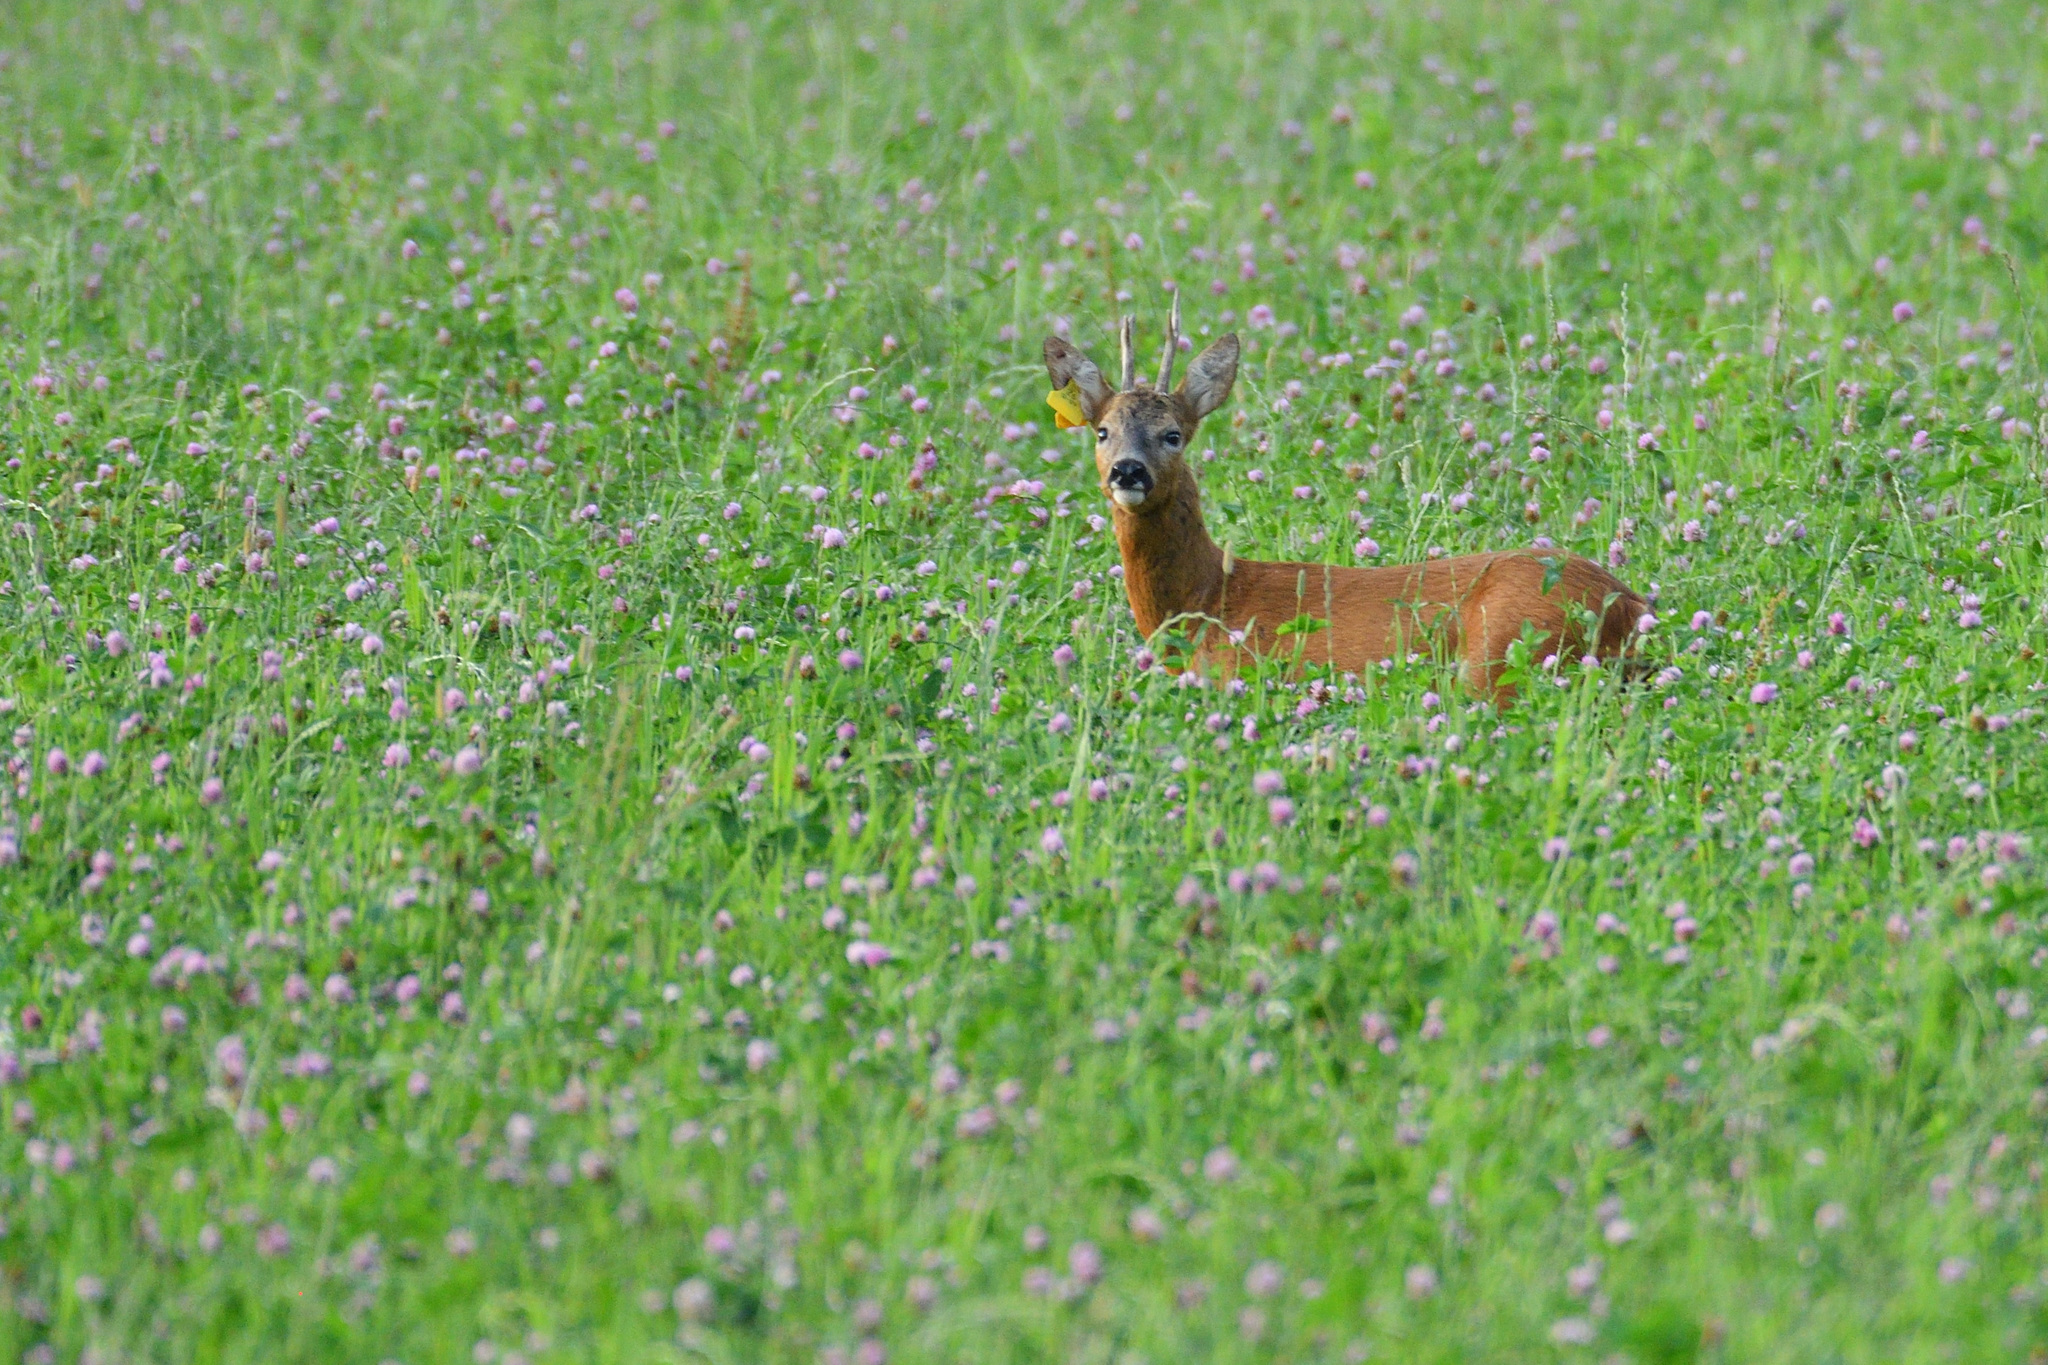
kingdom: Animalia
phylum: Chordata
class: Mammalia
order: Artiodactyla
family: Cervidae
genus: Capreolus
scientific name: Capreolus capreolus
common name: Western roe deer
